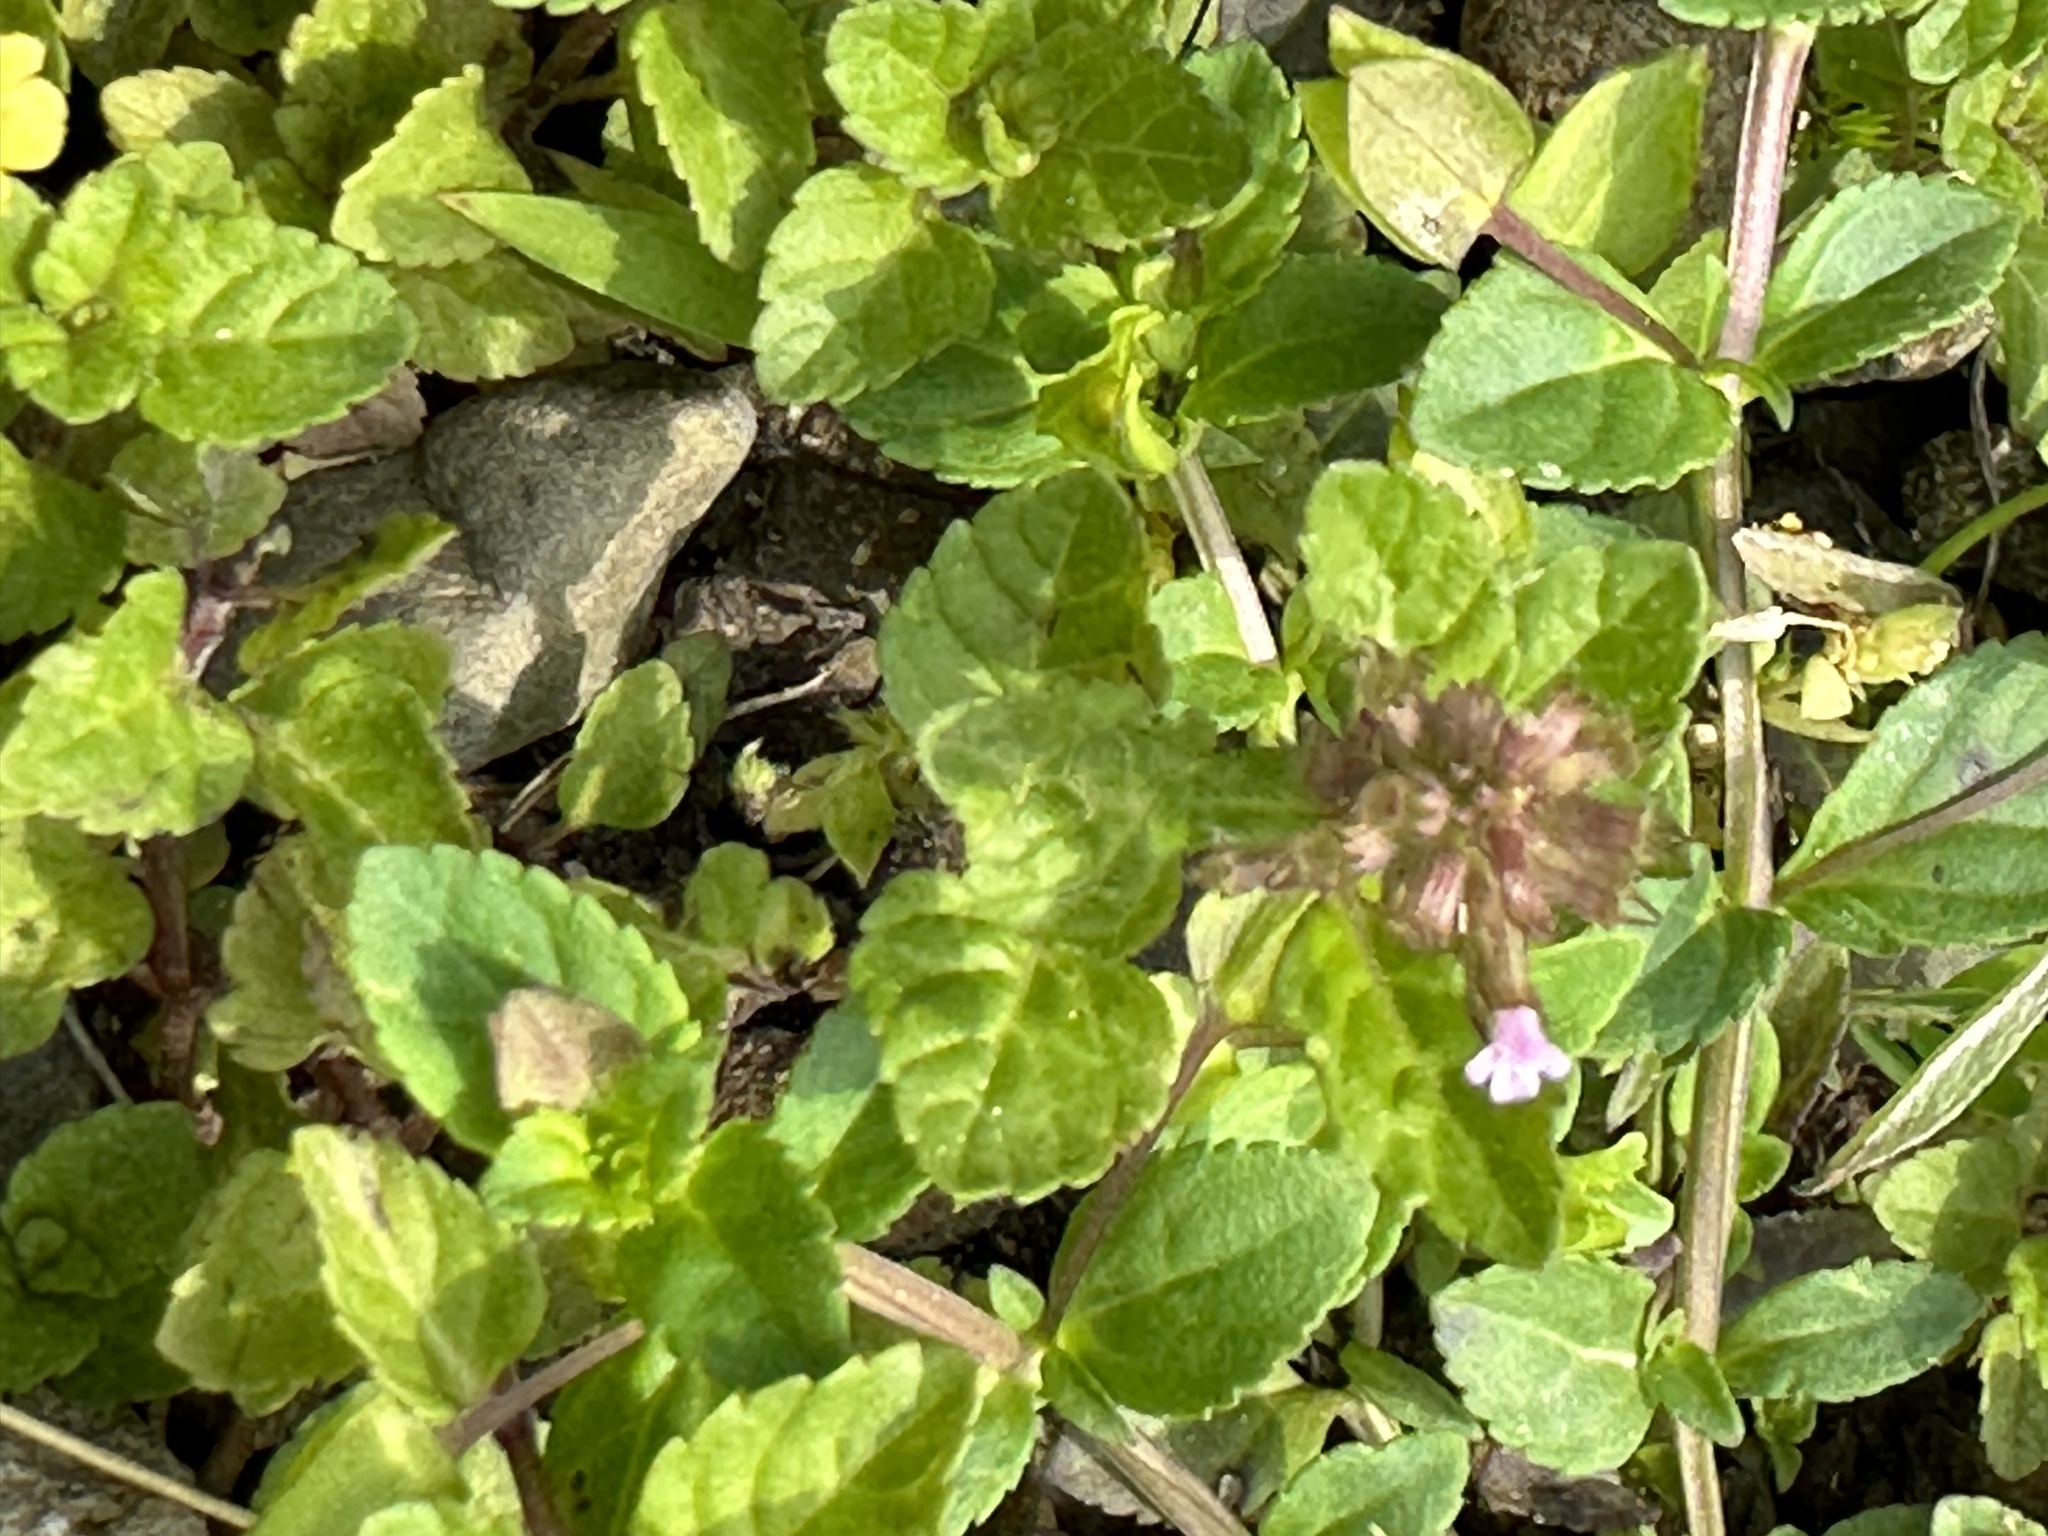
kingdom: Plantae
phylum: Tracheophyta
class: Magnoliopsida
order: Lamiales
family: Lamiaceae
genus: Clinopodium
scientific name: Clinopodium gracile
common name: Slender wild basil
